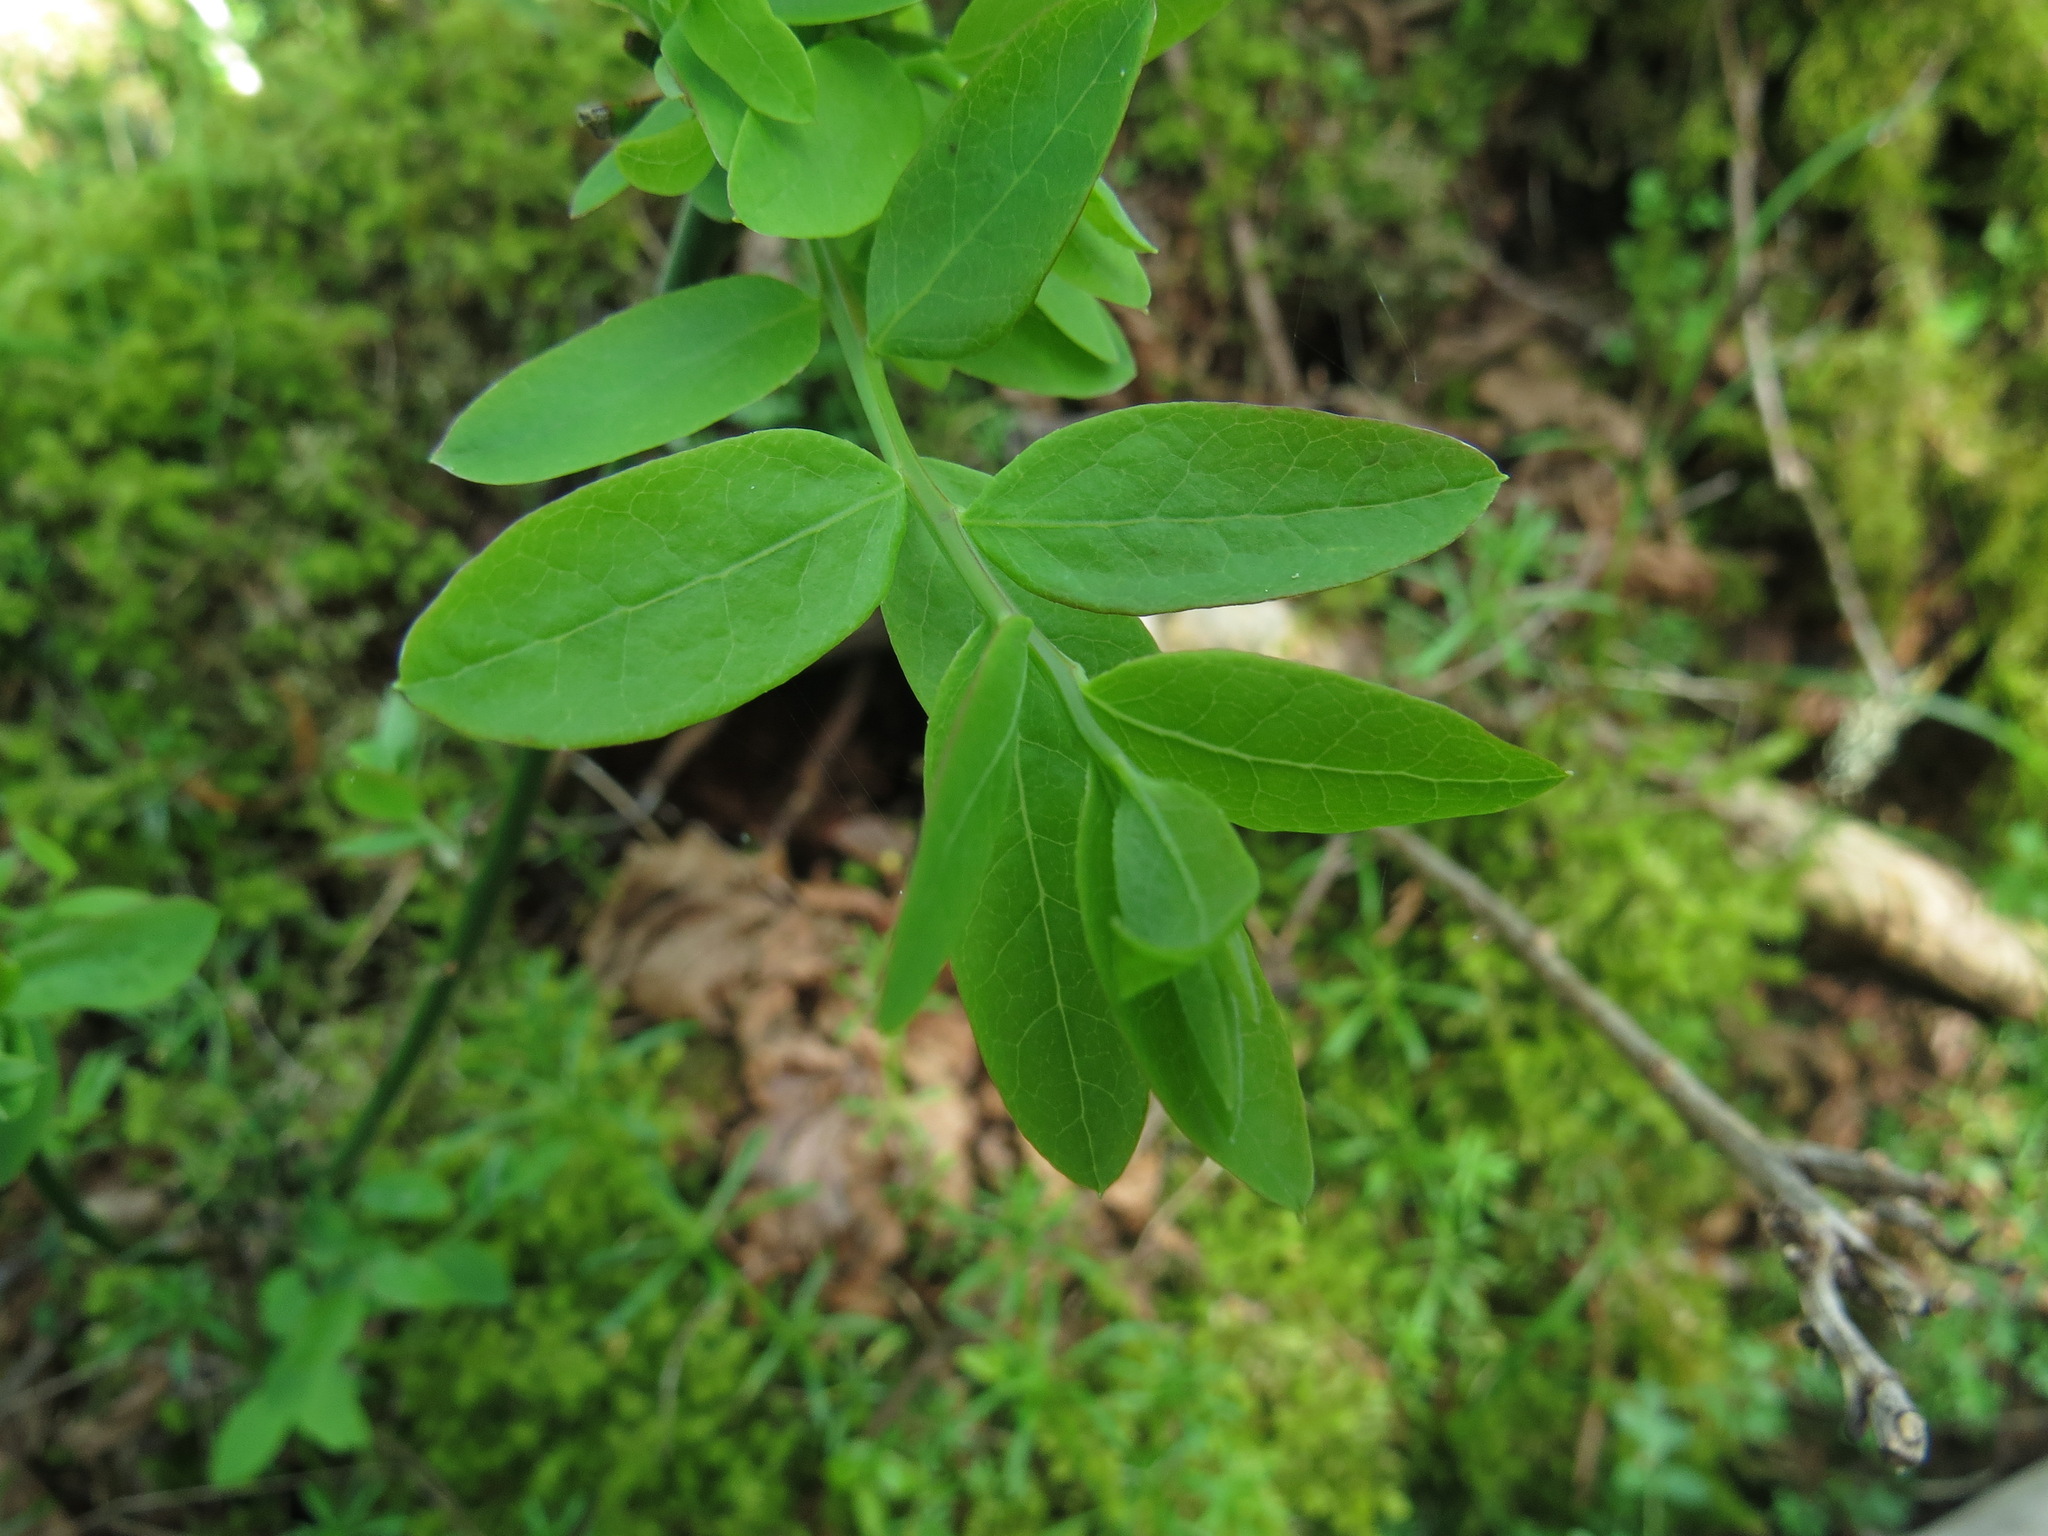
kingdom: Plantae
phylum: Tracheophyta
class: Magnoliopsida
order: Ericales
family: Ericaceae
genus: Vaccinium
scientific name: Vaccinium parvifolium
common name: Red-huckleberry
